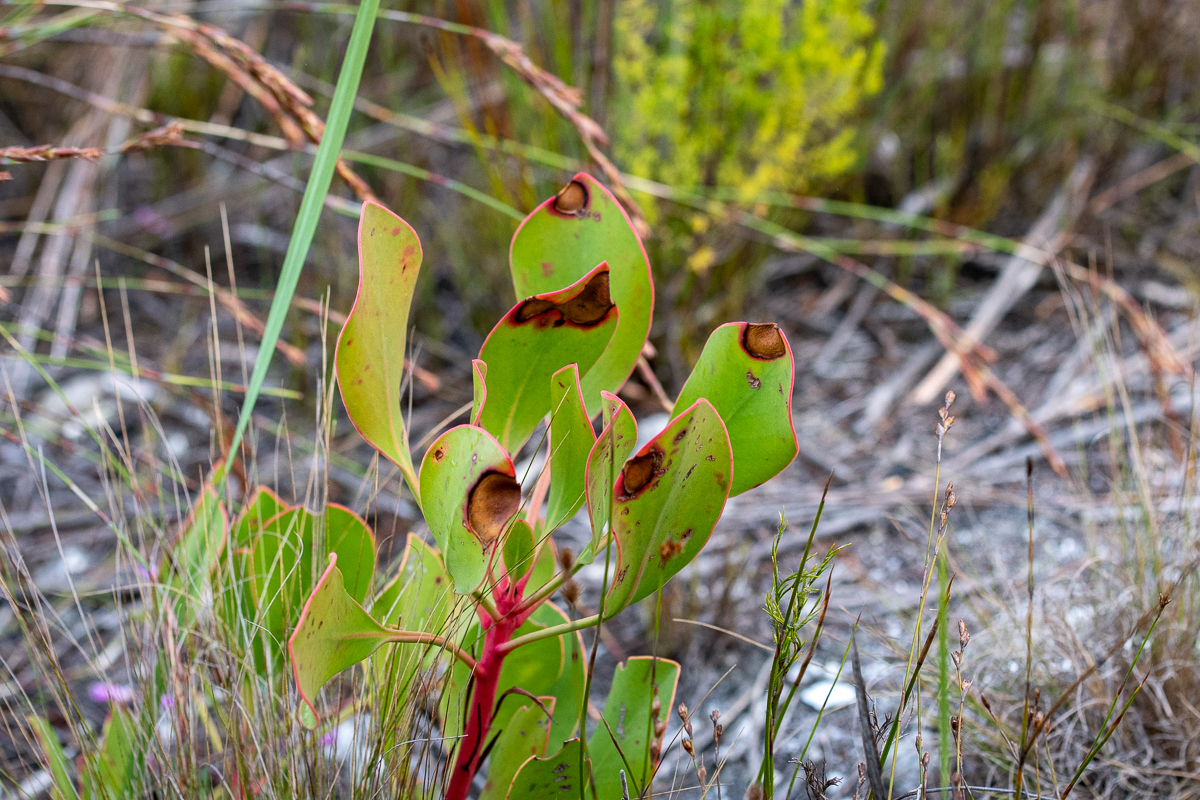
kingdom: Plantae
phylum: Tracheophyta
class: Magnoliopsida
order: Proteales
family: Proteaceae
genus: Protea
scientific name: Protea cynaroides
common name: King protea
